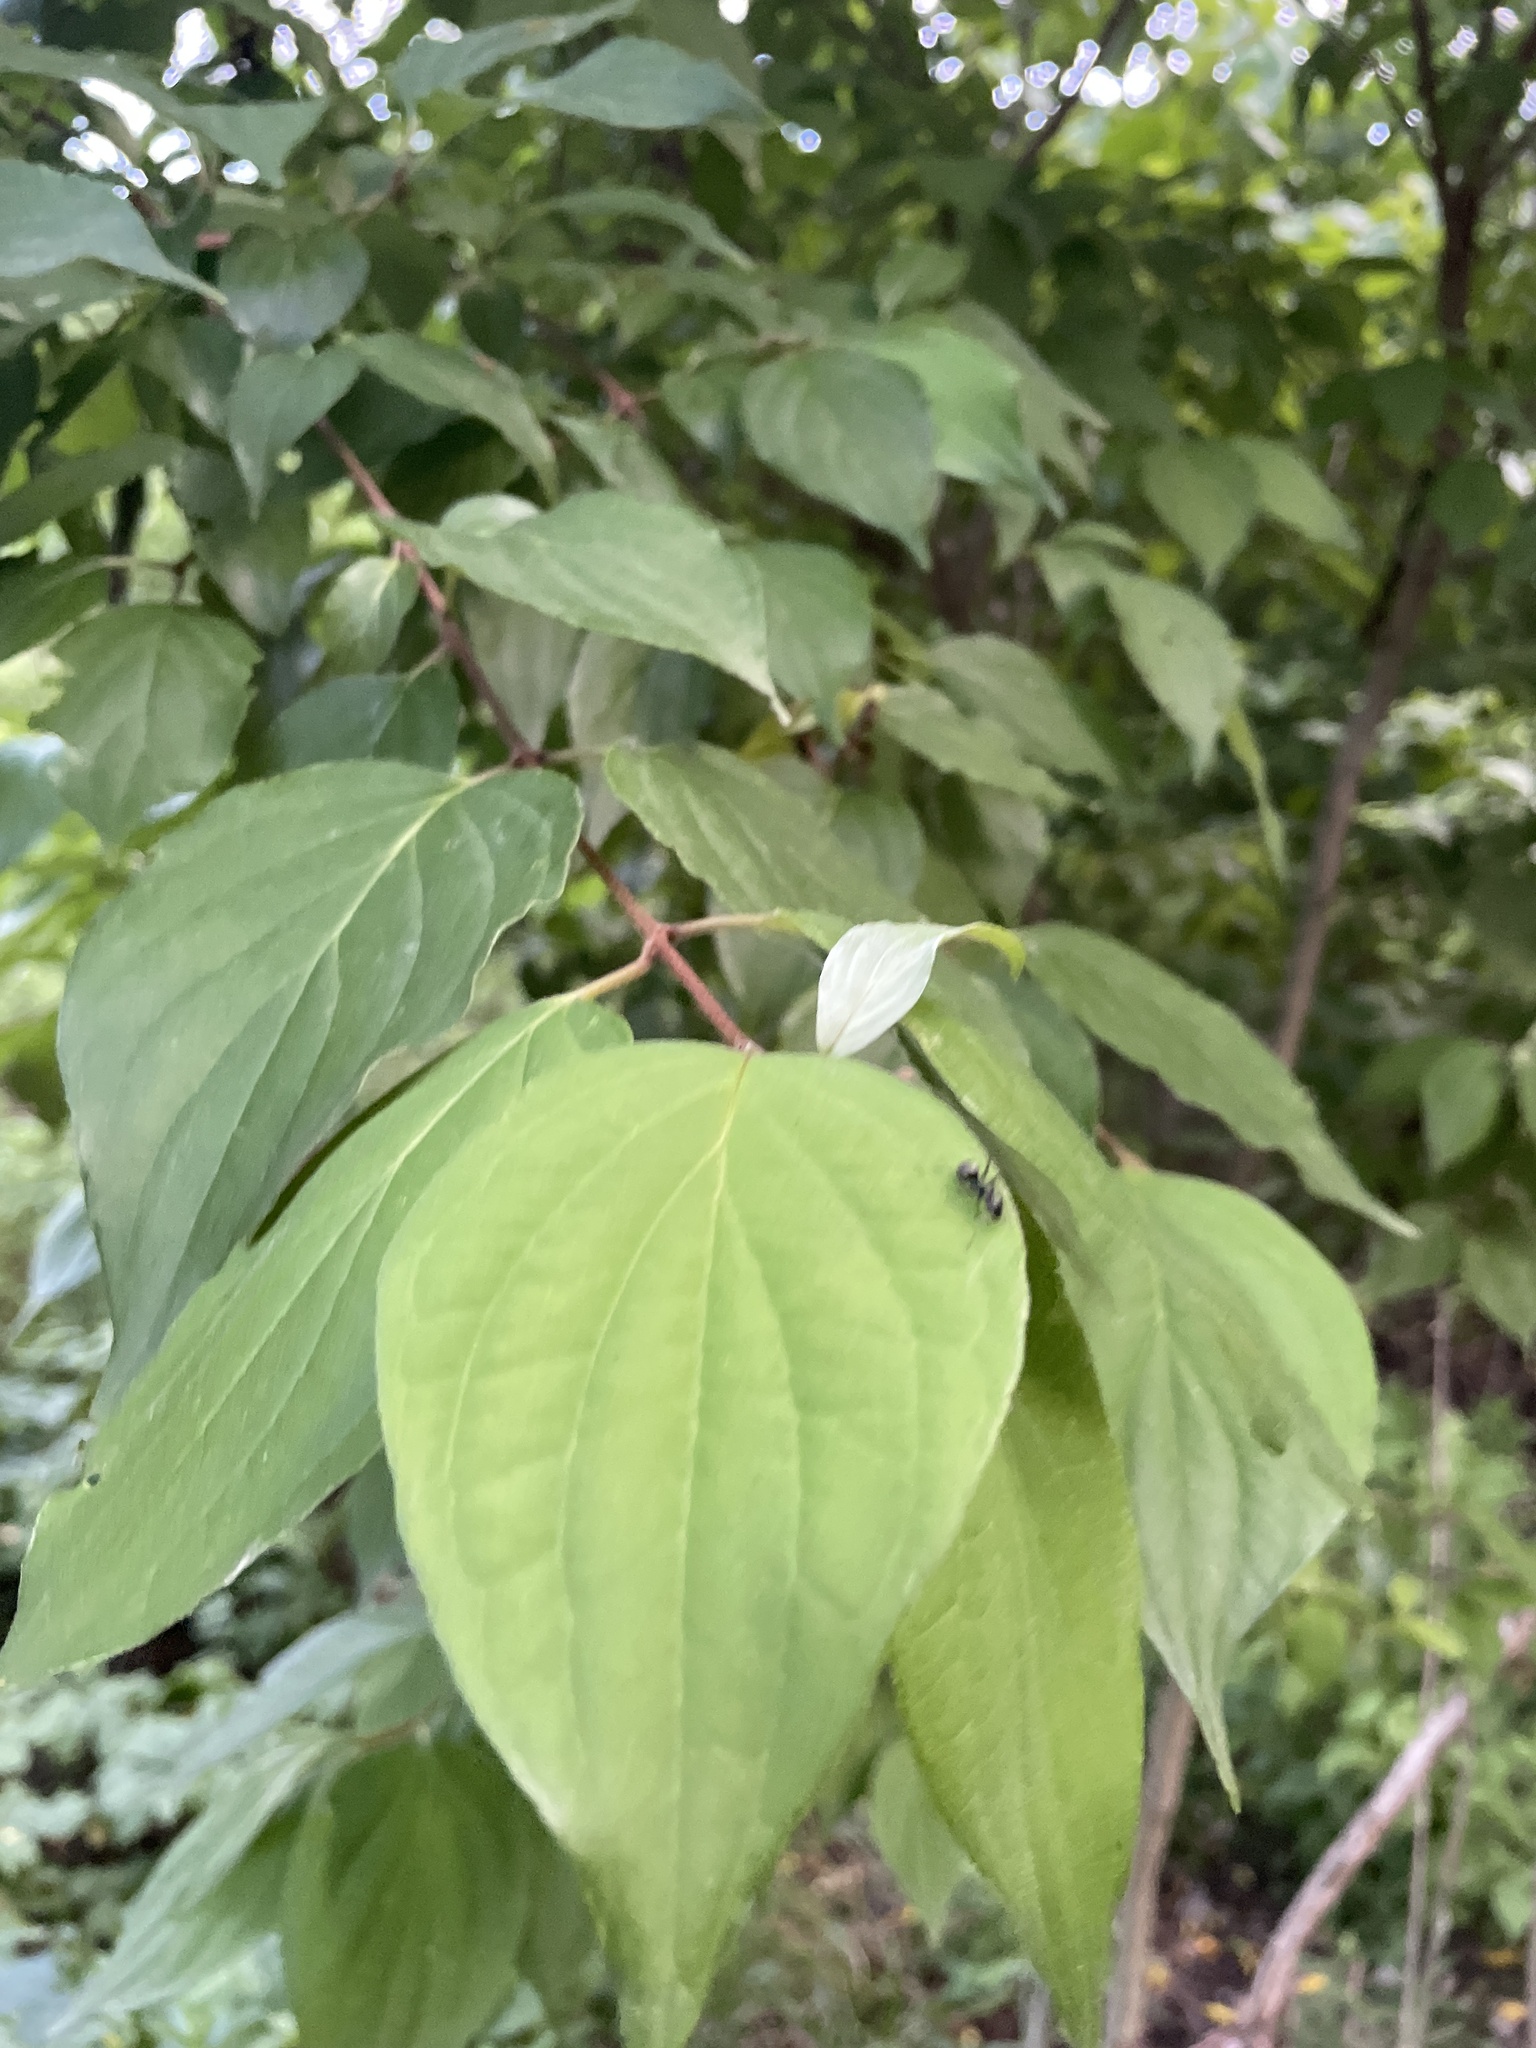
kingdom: Plantae
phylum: Tracheophyta
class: Magnoliopsida
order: Cornales
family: Cornaceae
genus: Cornus
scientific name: Cornus drummondii
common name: Rough-leaf dogwood
